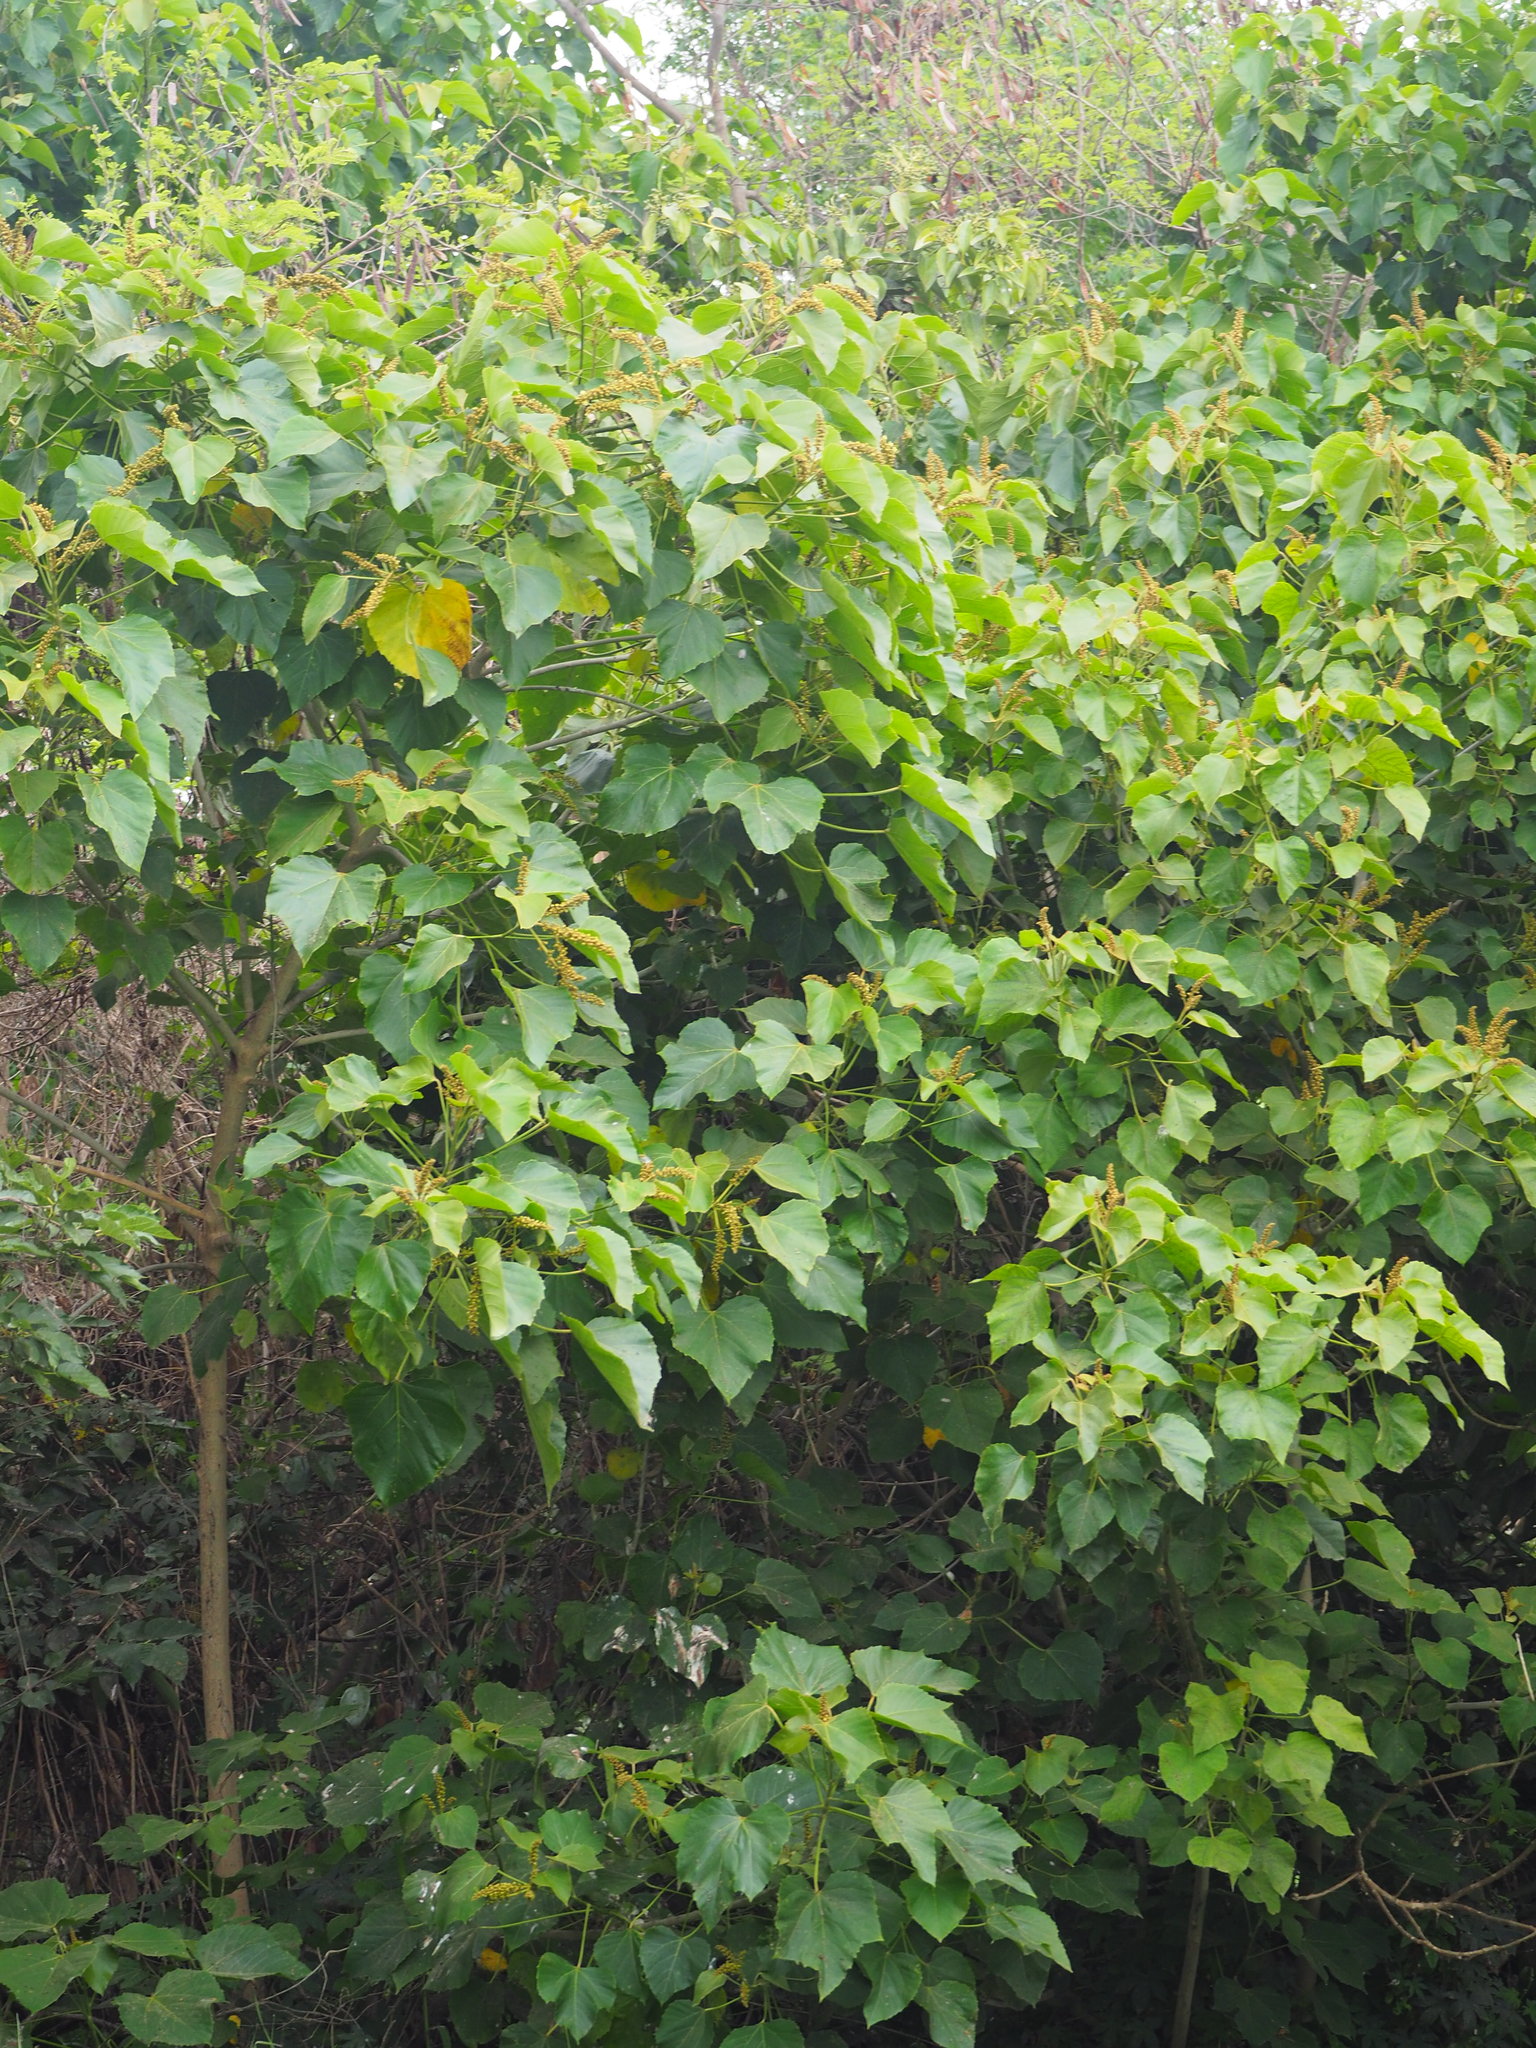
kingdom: Plantae
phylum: Tracheophyta
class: Magnoliopsida
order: Malpighiales
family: Euphorbiaceae
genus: Melanolepis
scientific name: Melanolepis multiglandulosa
